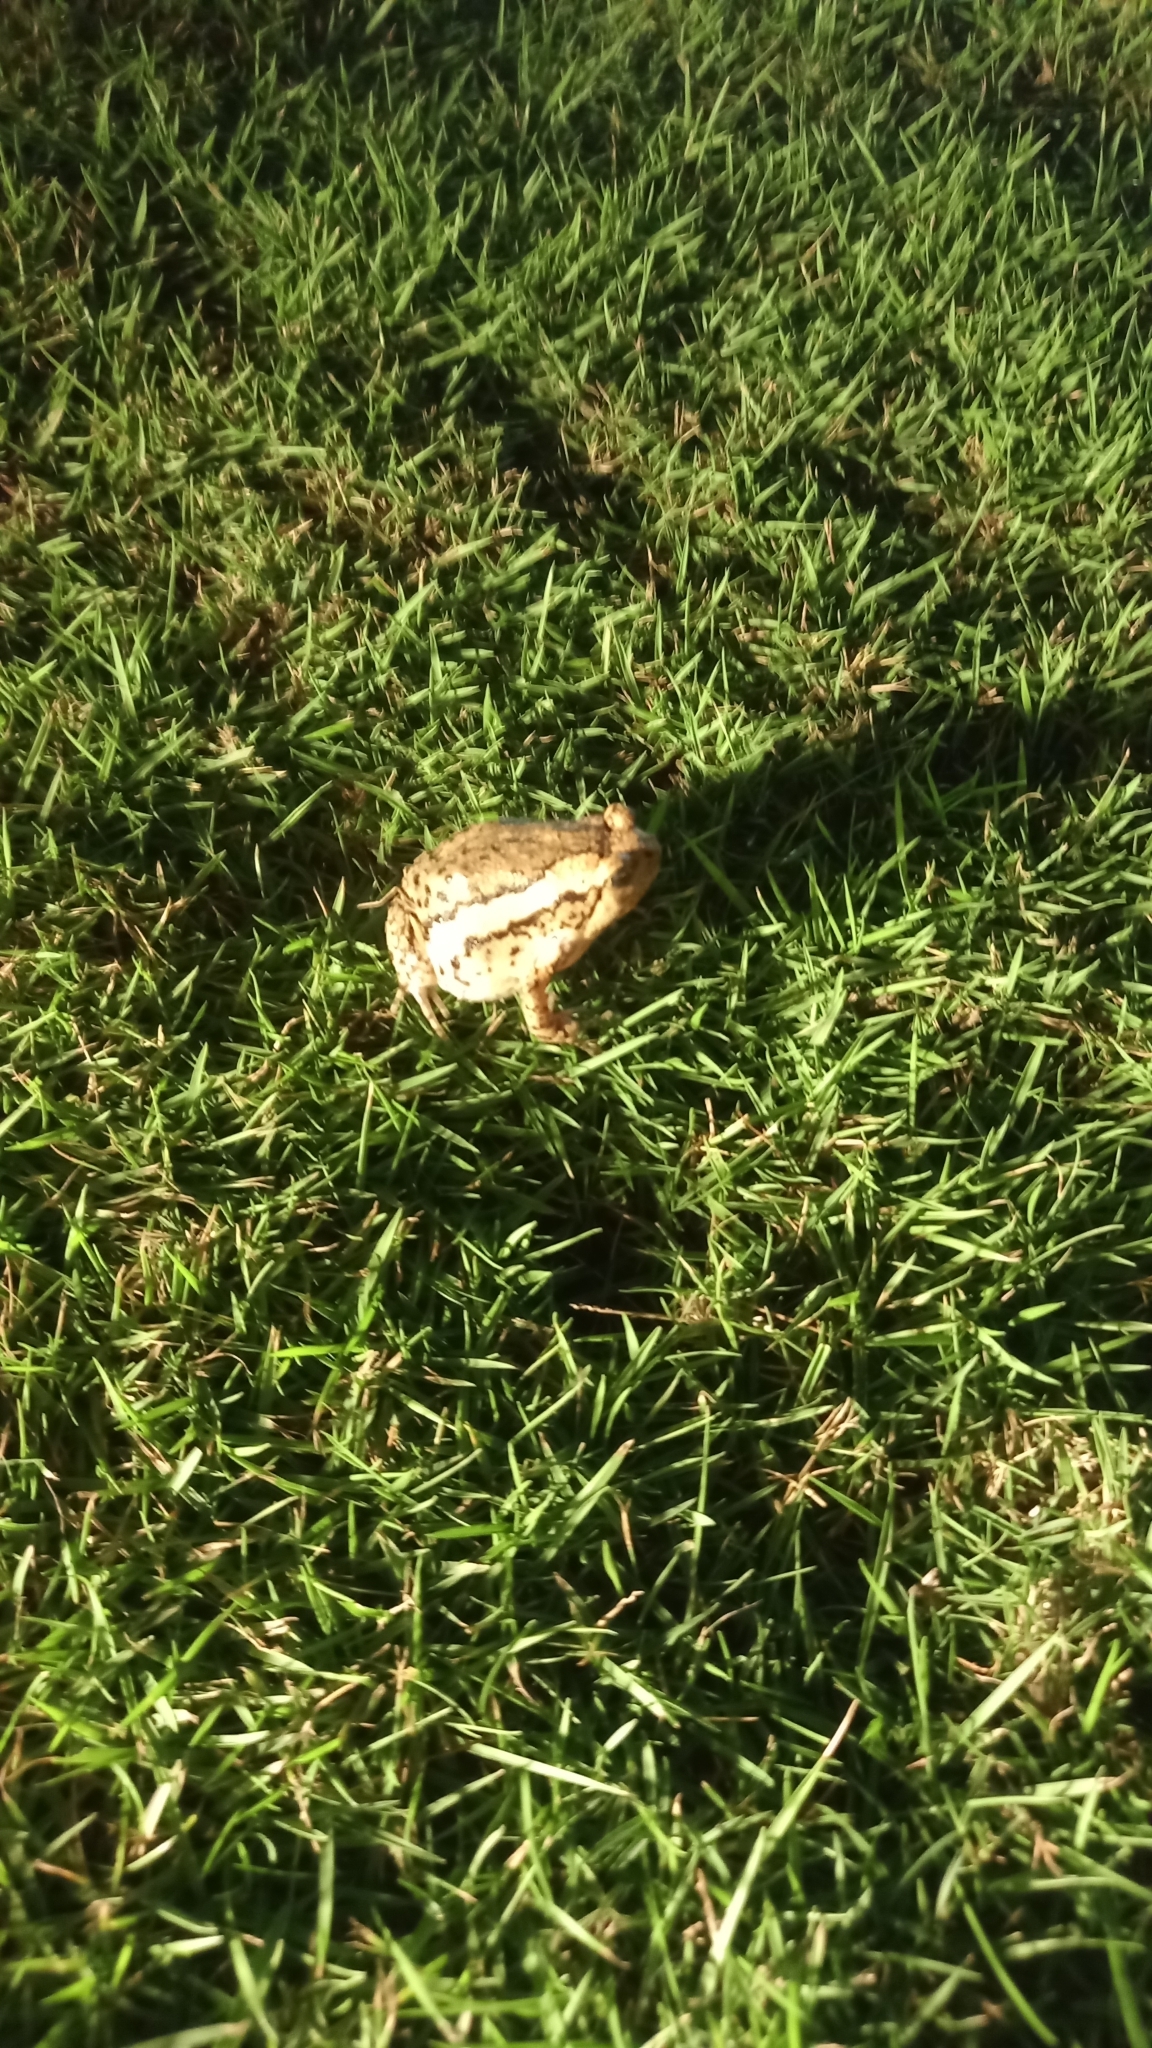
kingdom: Animalia
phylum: Chordata
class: Amphibia
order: Anura
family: Microhylidae
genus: Kaloula
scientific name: Kaloula pulchra
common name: Common,banded bullfrog
